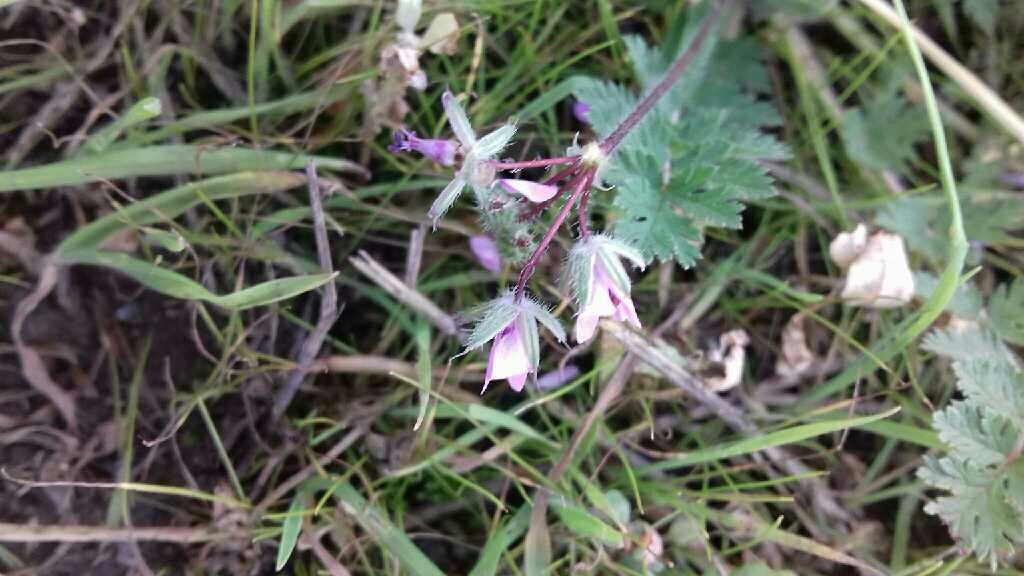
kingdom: Plantae
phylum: Tracheophyta
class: Magnoliopsida
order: Geraniales
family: Geraniaceae
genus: Erodium
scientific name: Erodium cicutarium
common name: Common stork's-bill
